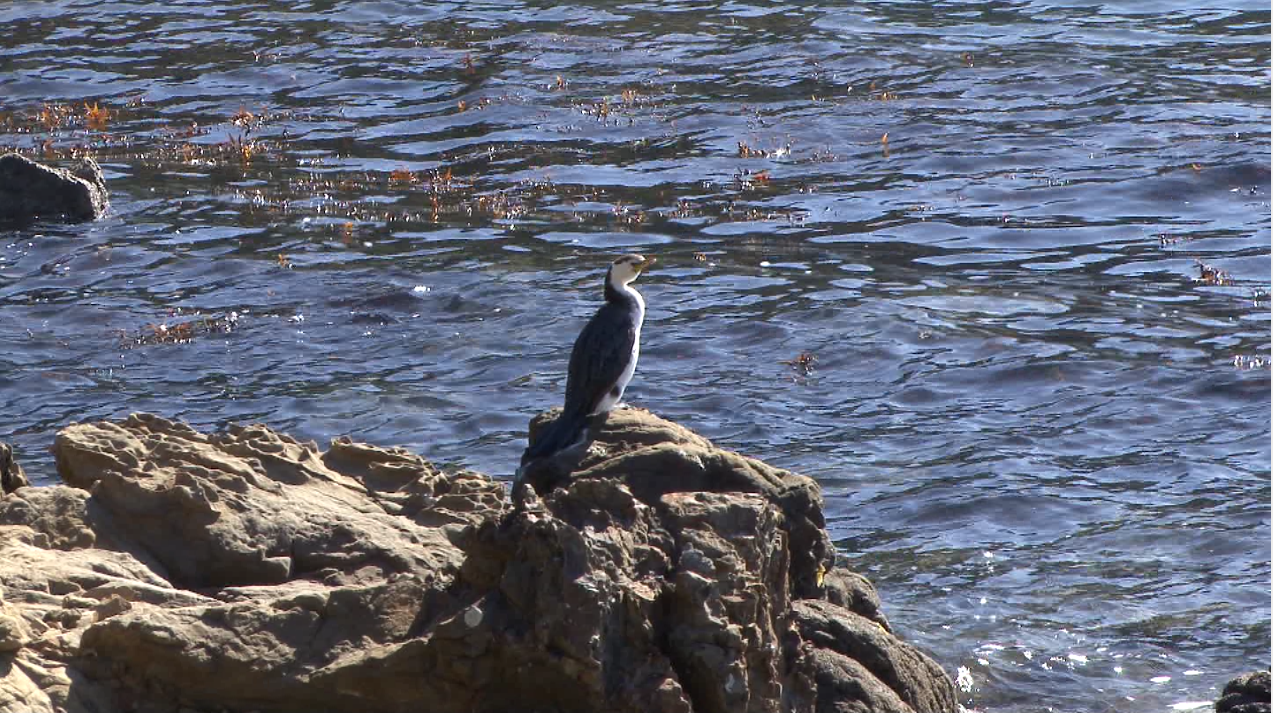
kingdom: Animalia
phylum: Chordata
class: Aves
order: Suliformes
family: Phalacrocoracidae
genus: Microcarbo
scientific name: Microcarbo melanoleucos
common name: Little pied cormorant
